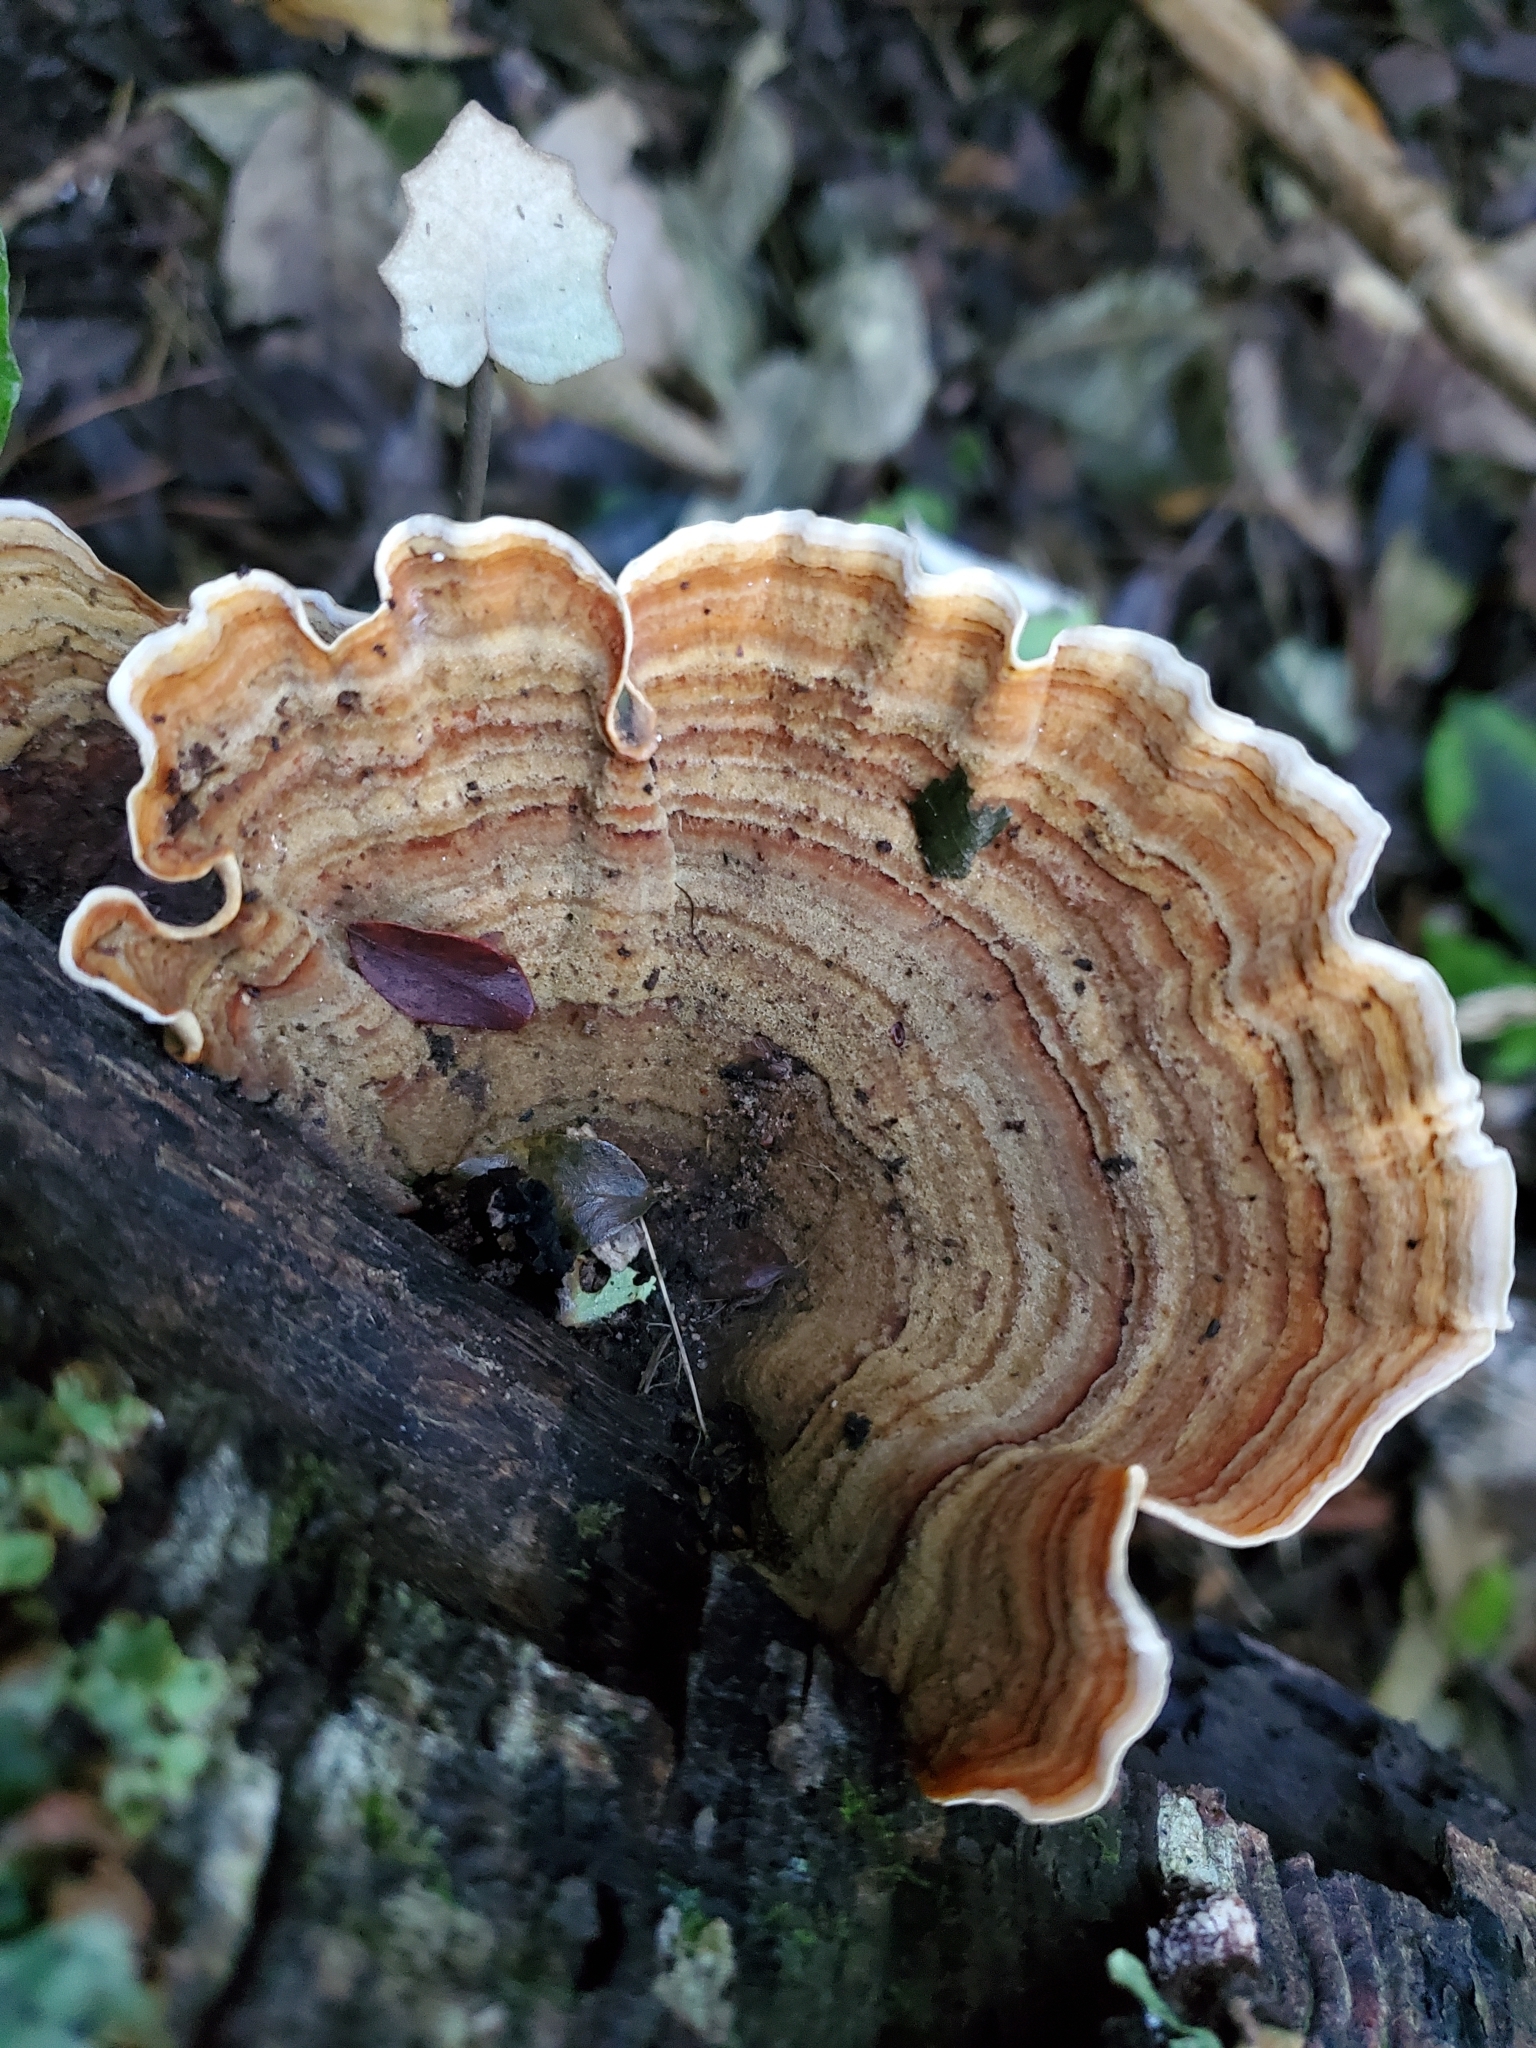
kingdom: Fungi
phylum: Basidiomycota
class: Agaricomycetes
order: Russulales
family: Stereaceae
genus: Stereum
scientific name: Stereum versicolor
